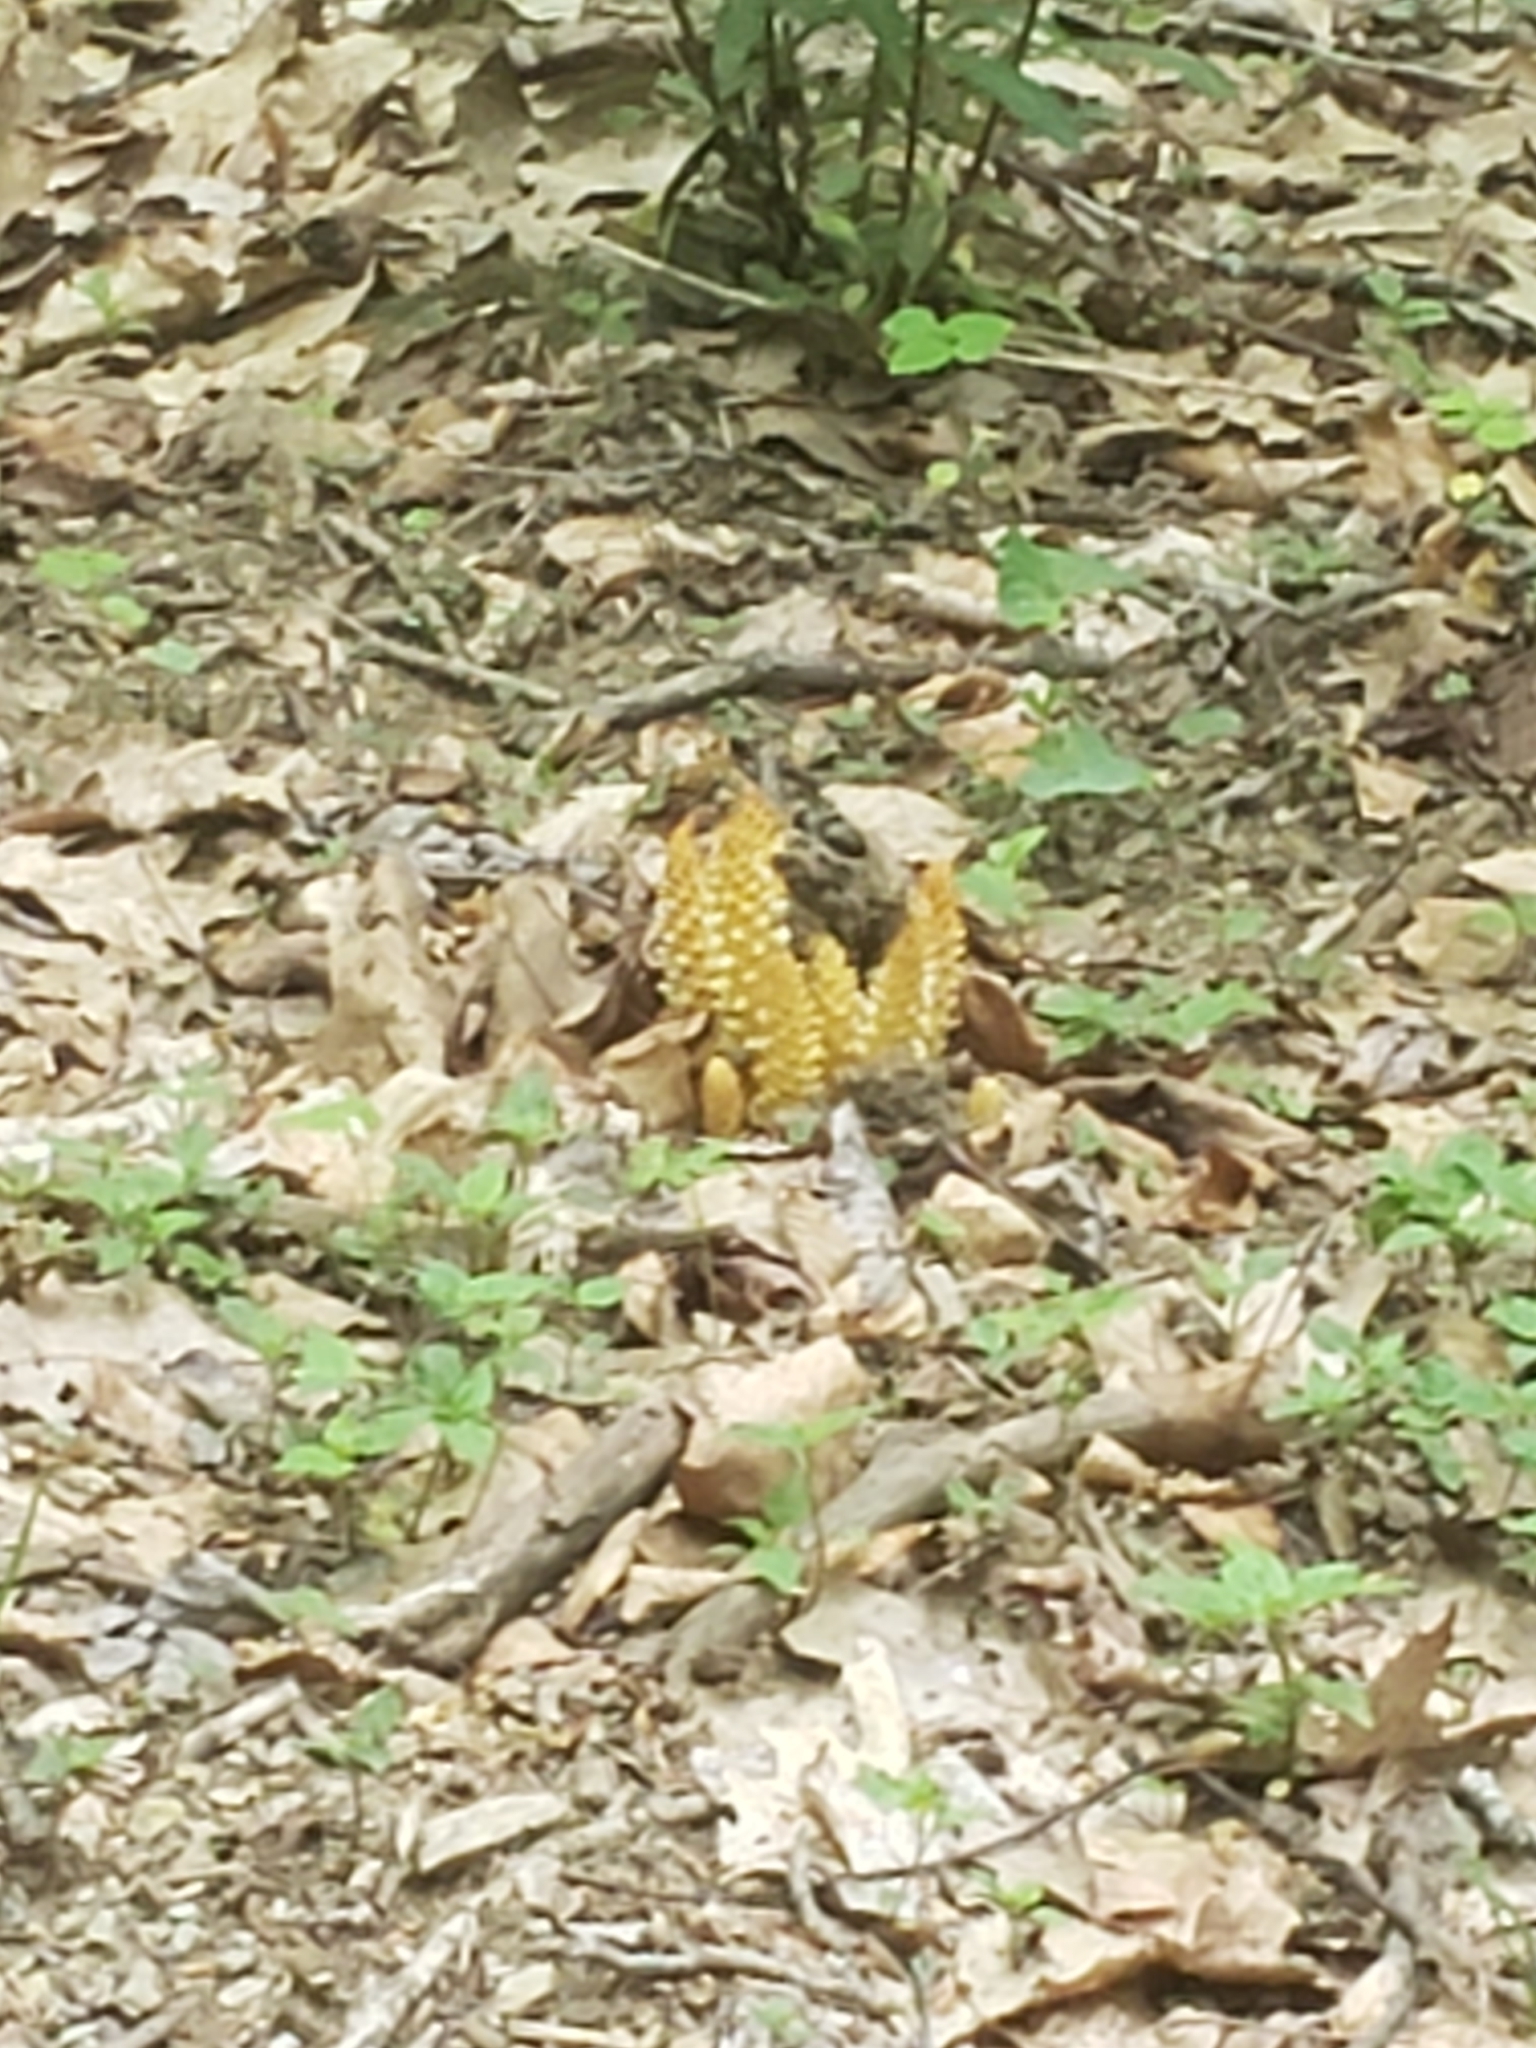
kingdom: Plantae
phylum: Tracheophyta
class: Magnoliopsida
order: Lamiales
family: Orobanchaceae
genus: Conopholis
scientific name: Conopholis americana
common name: American cancer-root
